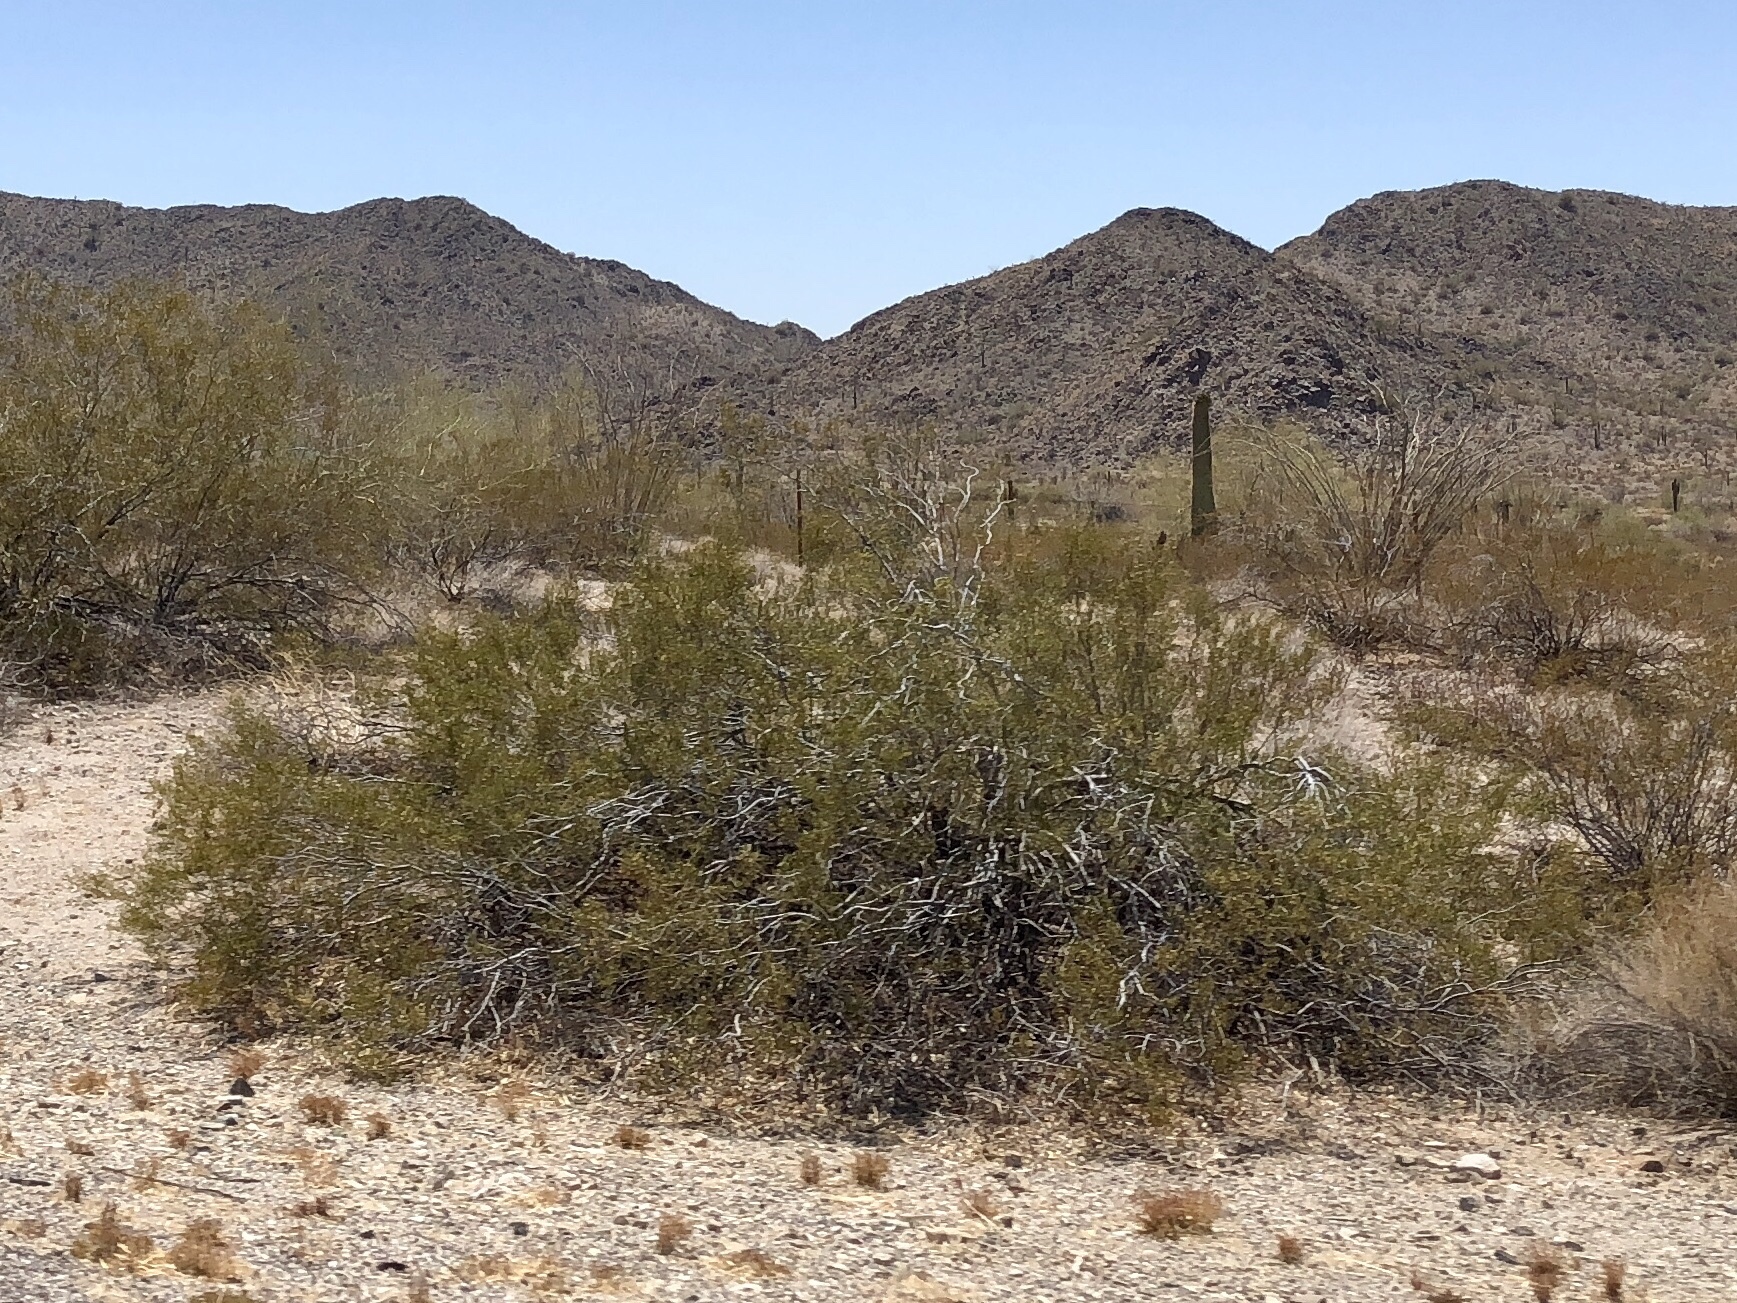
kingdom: Plantae
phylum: Tracheophyta
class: Magnoliopsida
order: Zygophyllales
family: Zygophyllaceae
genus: Larrea
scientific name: Larrea tridentata
